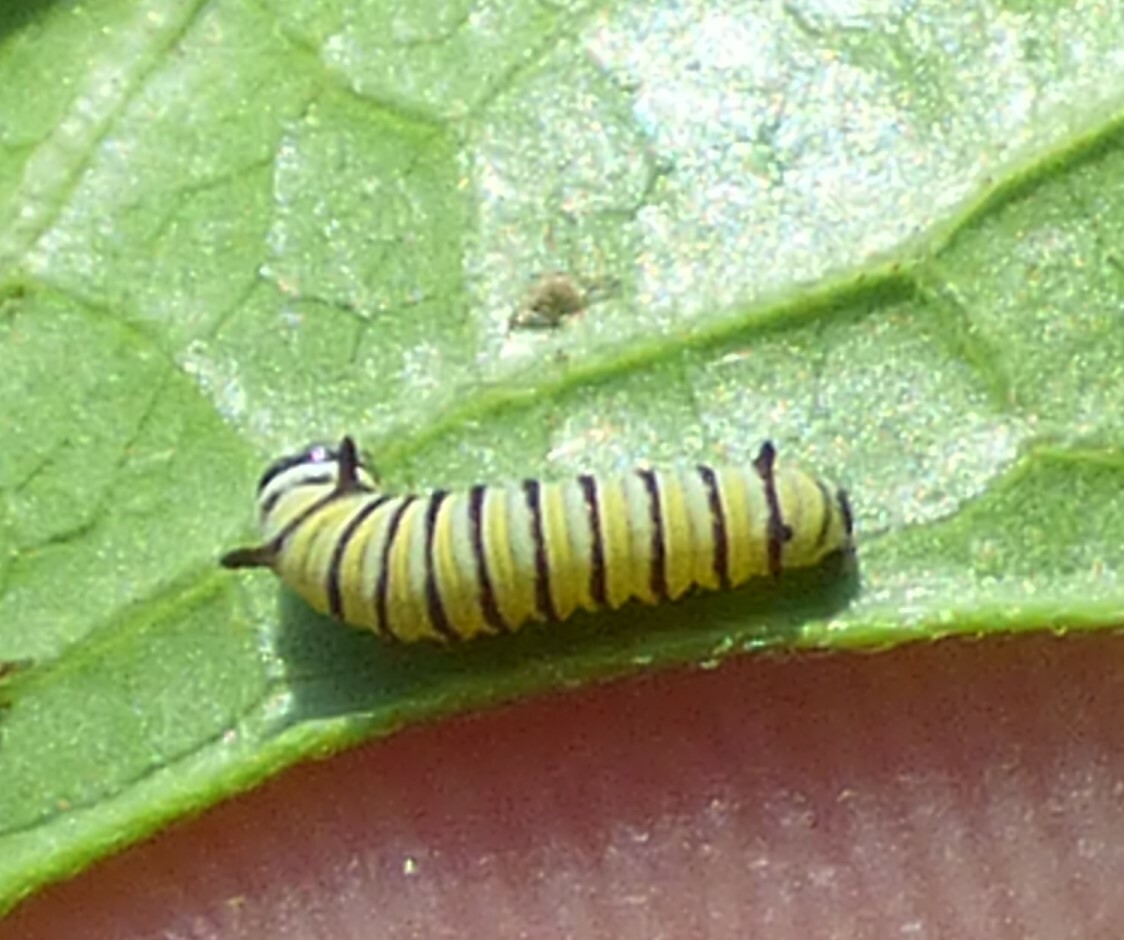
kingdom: Animalia
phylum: Arthropoda
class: Insecta
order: Lepidoptera
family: Nymphalidae
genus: Danaus
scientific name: Danaus plexippus
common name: Monarch
